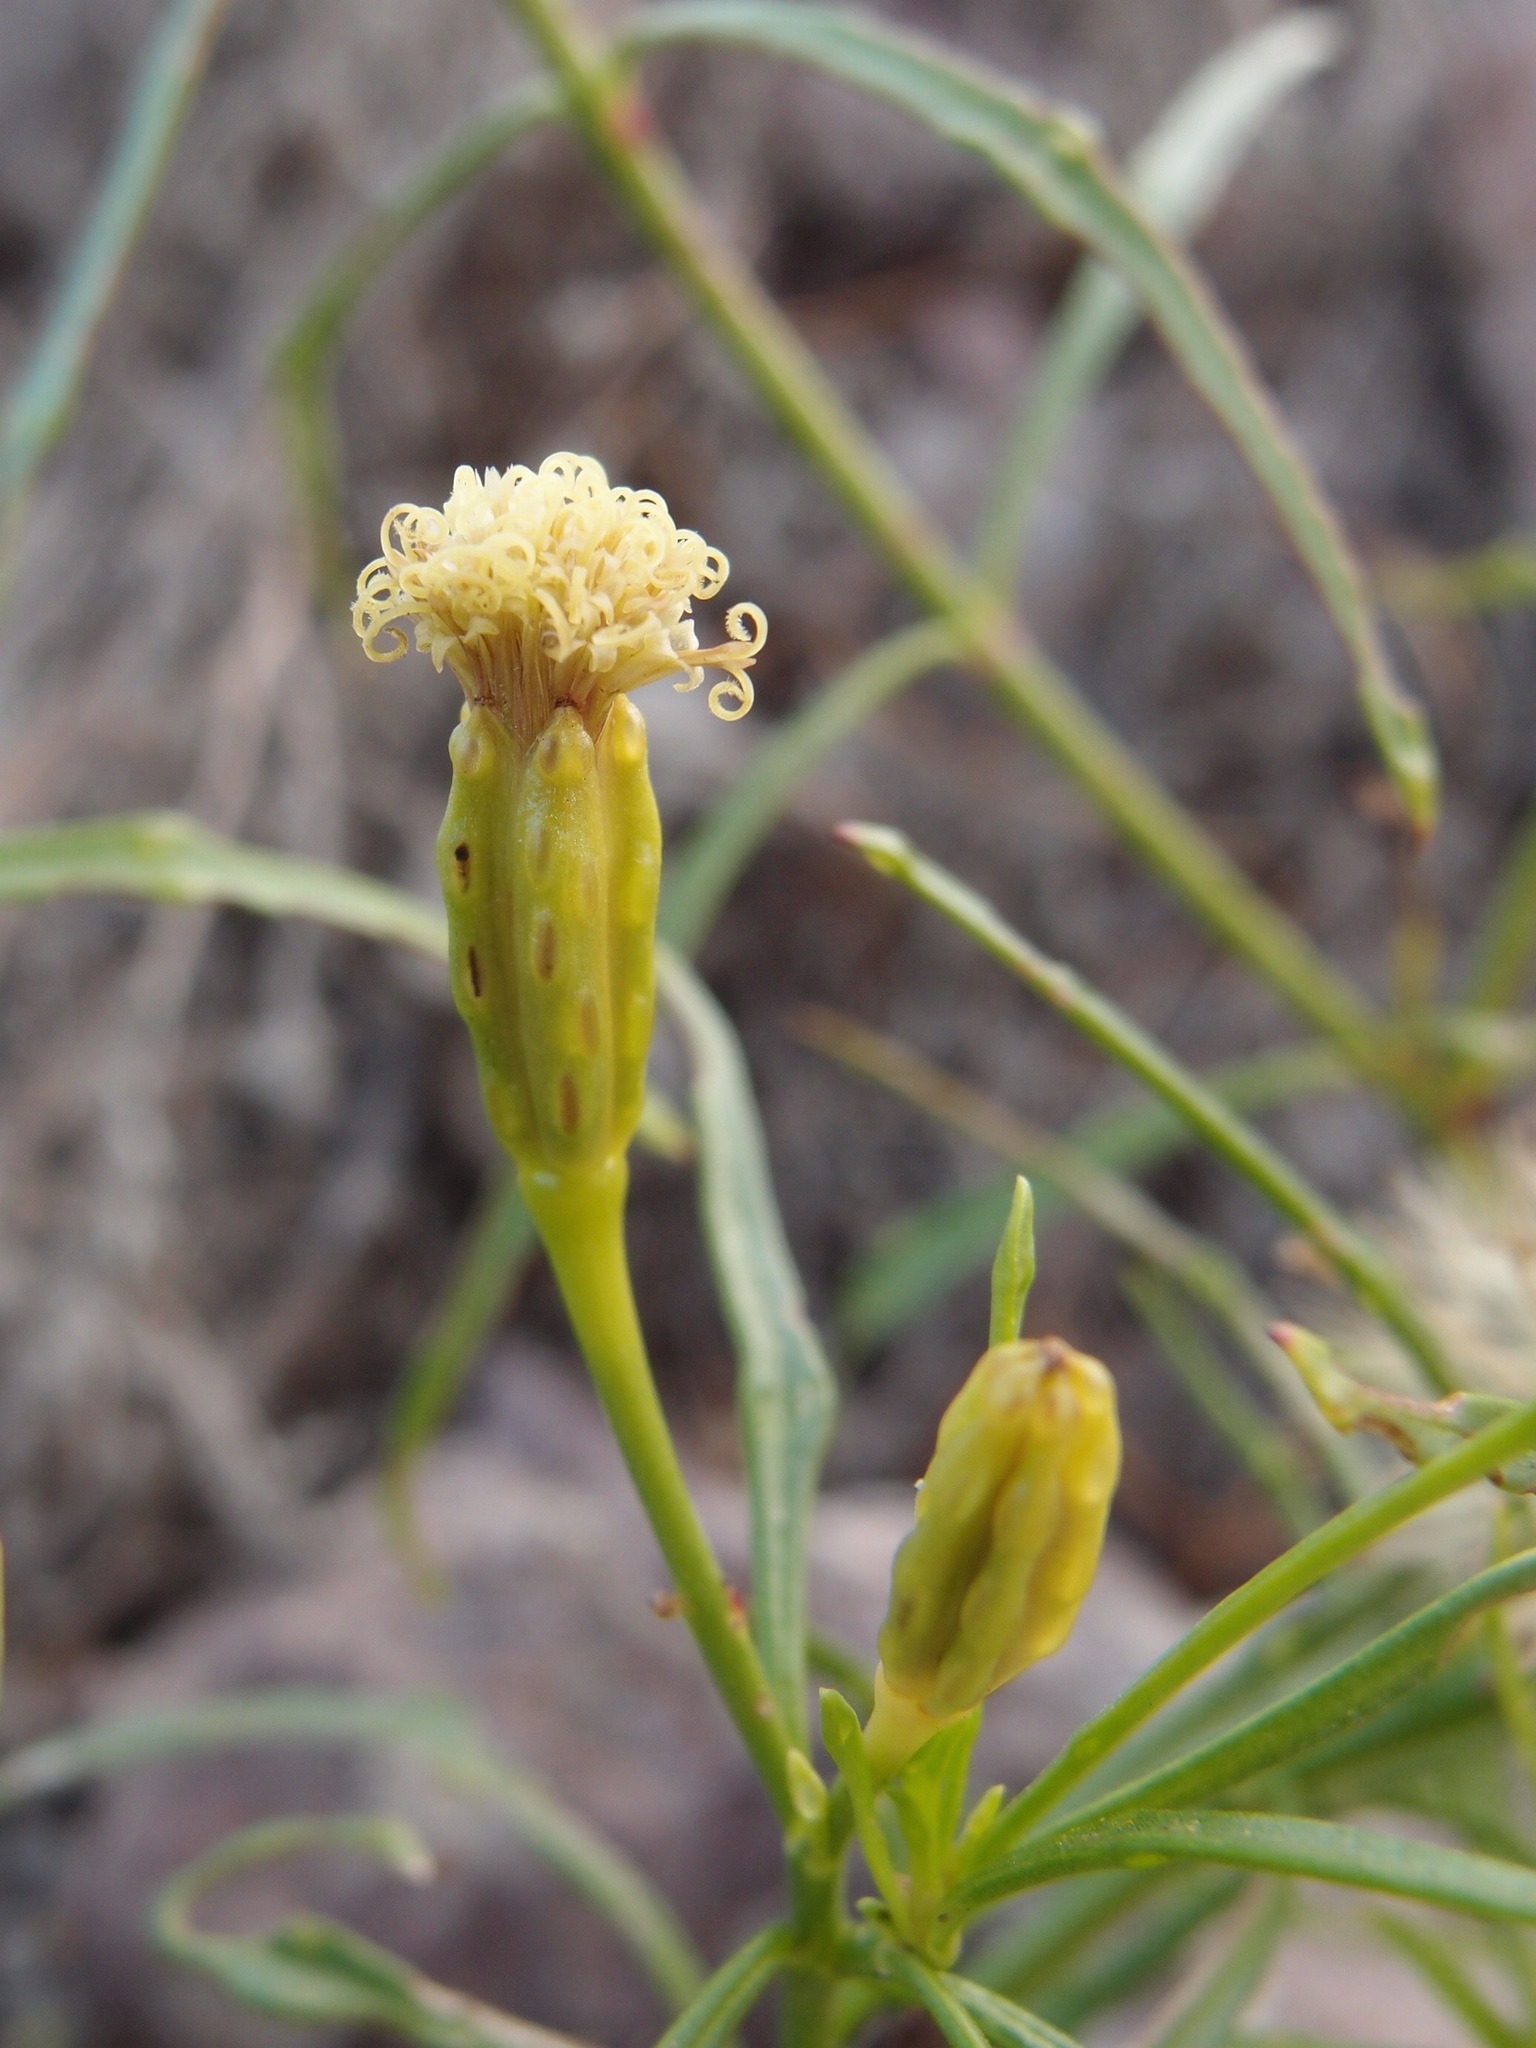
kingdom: Plantae
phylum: Tracheophyta
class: Magnoliopsida
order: Asterales
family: Asteraceae
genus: Porophyllum
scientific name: Porophyllum pausodynum
